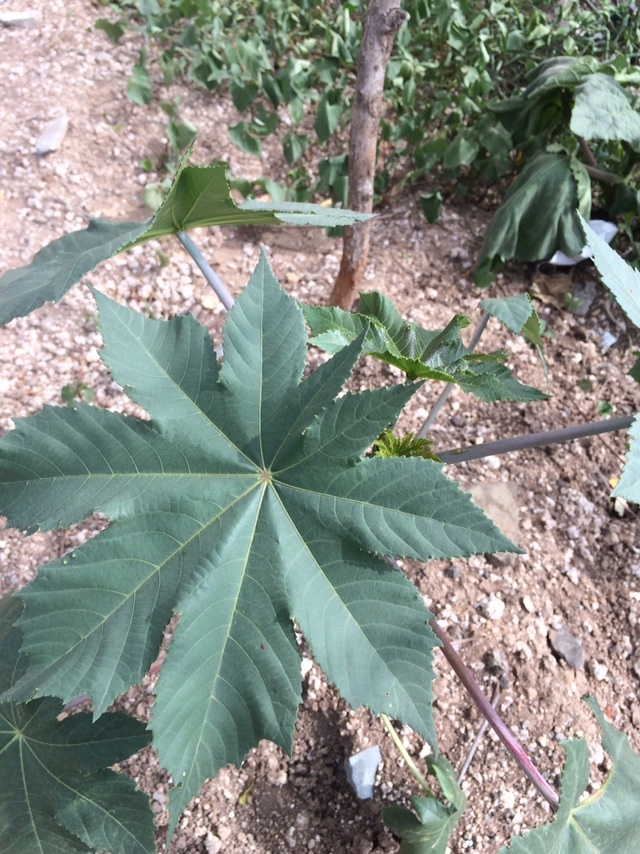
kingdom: Plantae
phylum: Tracheophyta
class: Magnoliopsida
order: Malpighiales
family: Euphorbiaceae
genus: Ricinus
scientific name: Ricinus communis
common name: Castor-oil-plant
